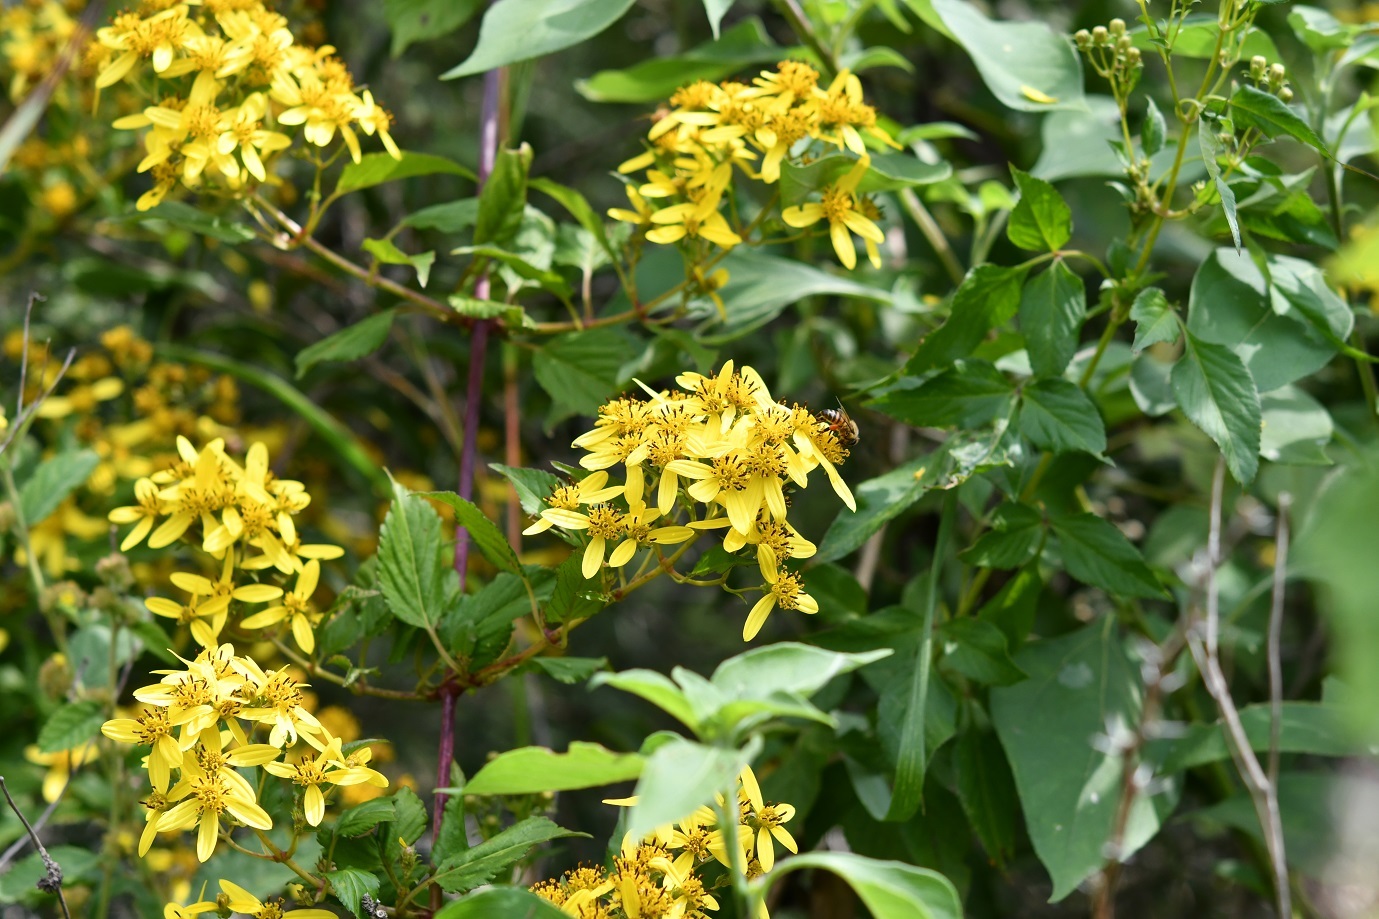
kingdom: Plantae
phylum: Tracheophyta
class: Magnoliopsida
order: Asterales
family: Asteraceae
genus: Bidens
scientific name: Bidens reptans
